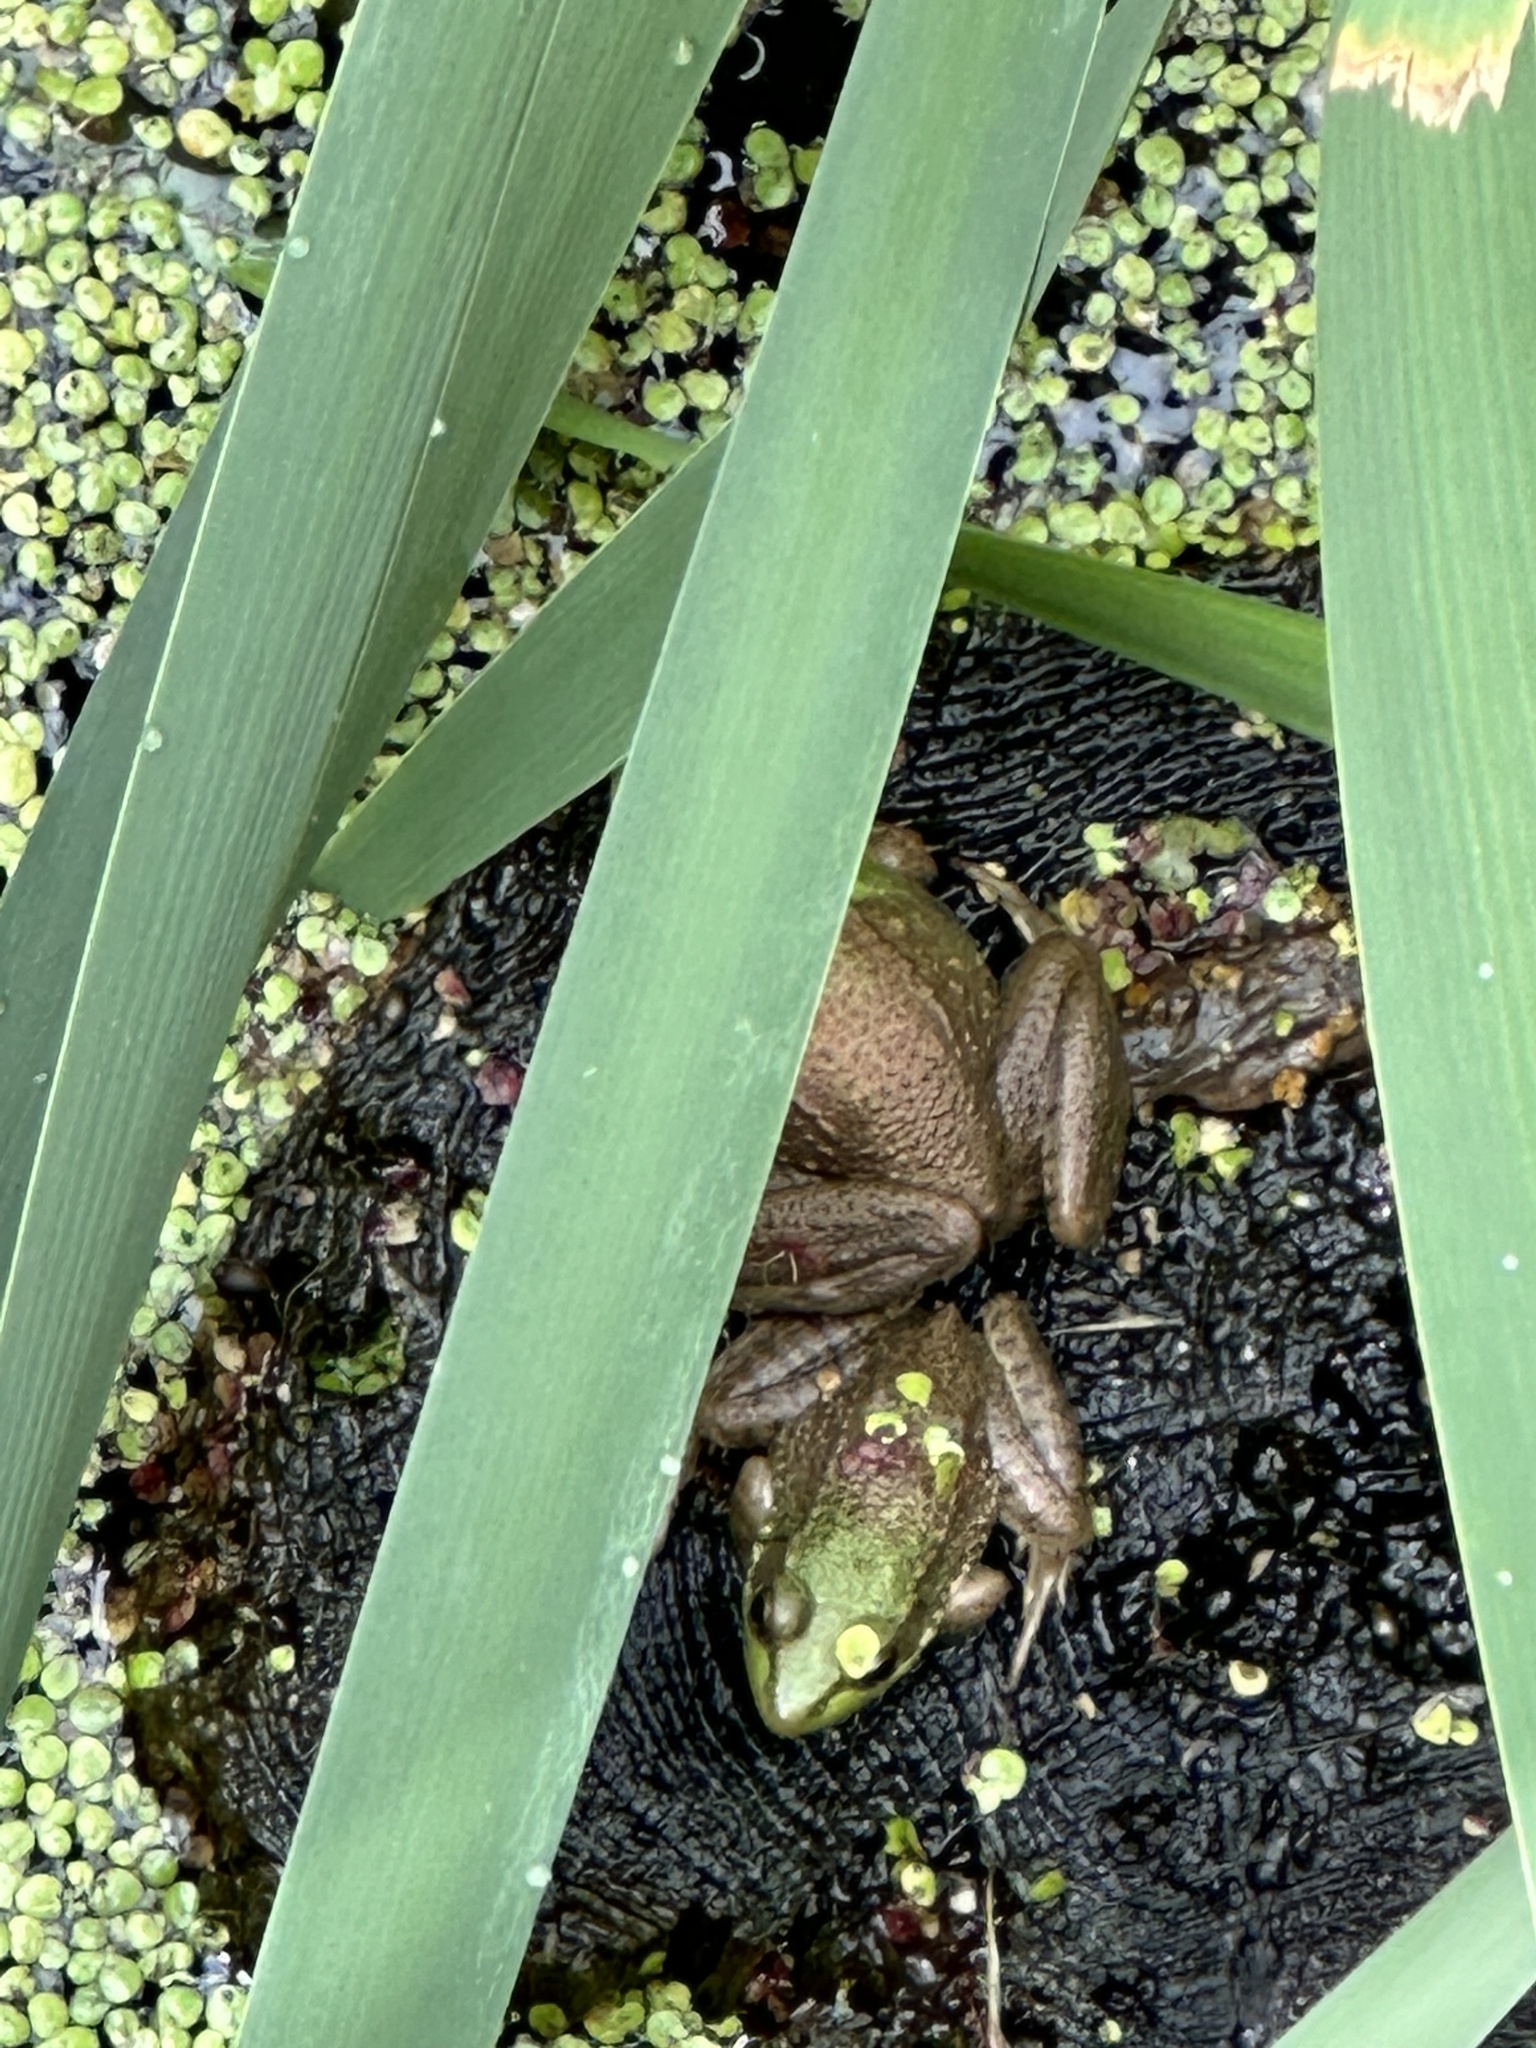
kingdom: Animalia
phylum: Chordata
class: Amphibia
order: Anura
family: Ranidae
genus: Lithobates
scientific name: Lithobates clamitans
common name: Green frog
